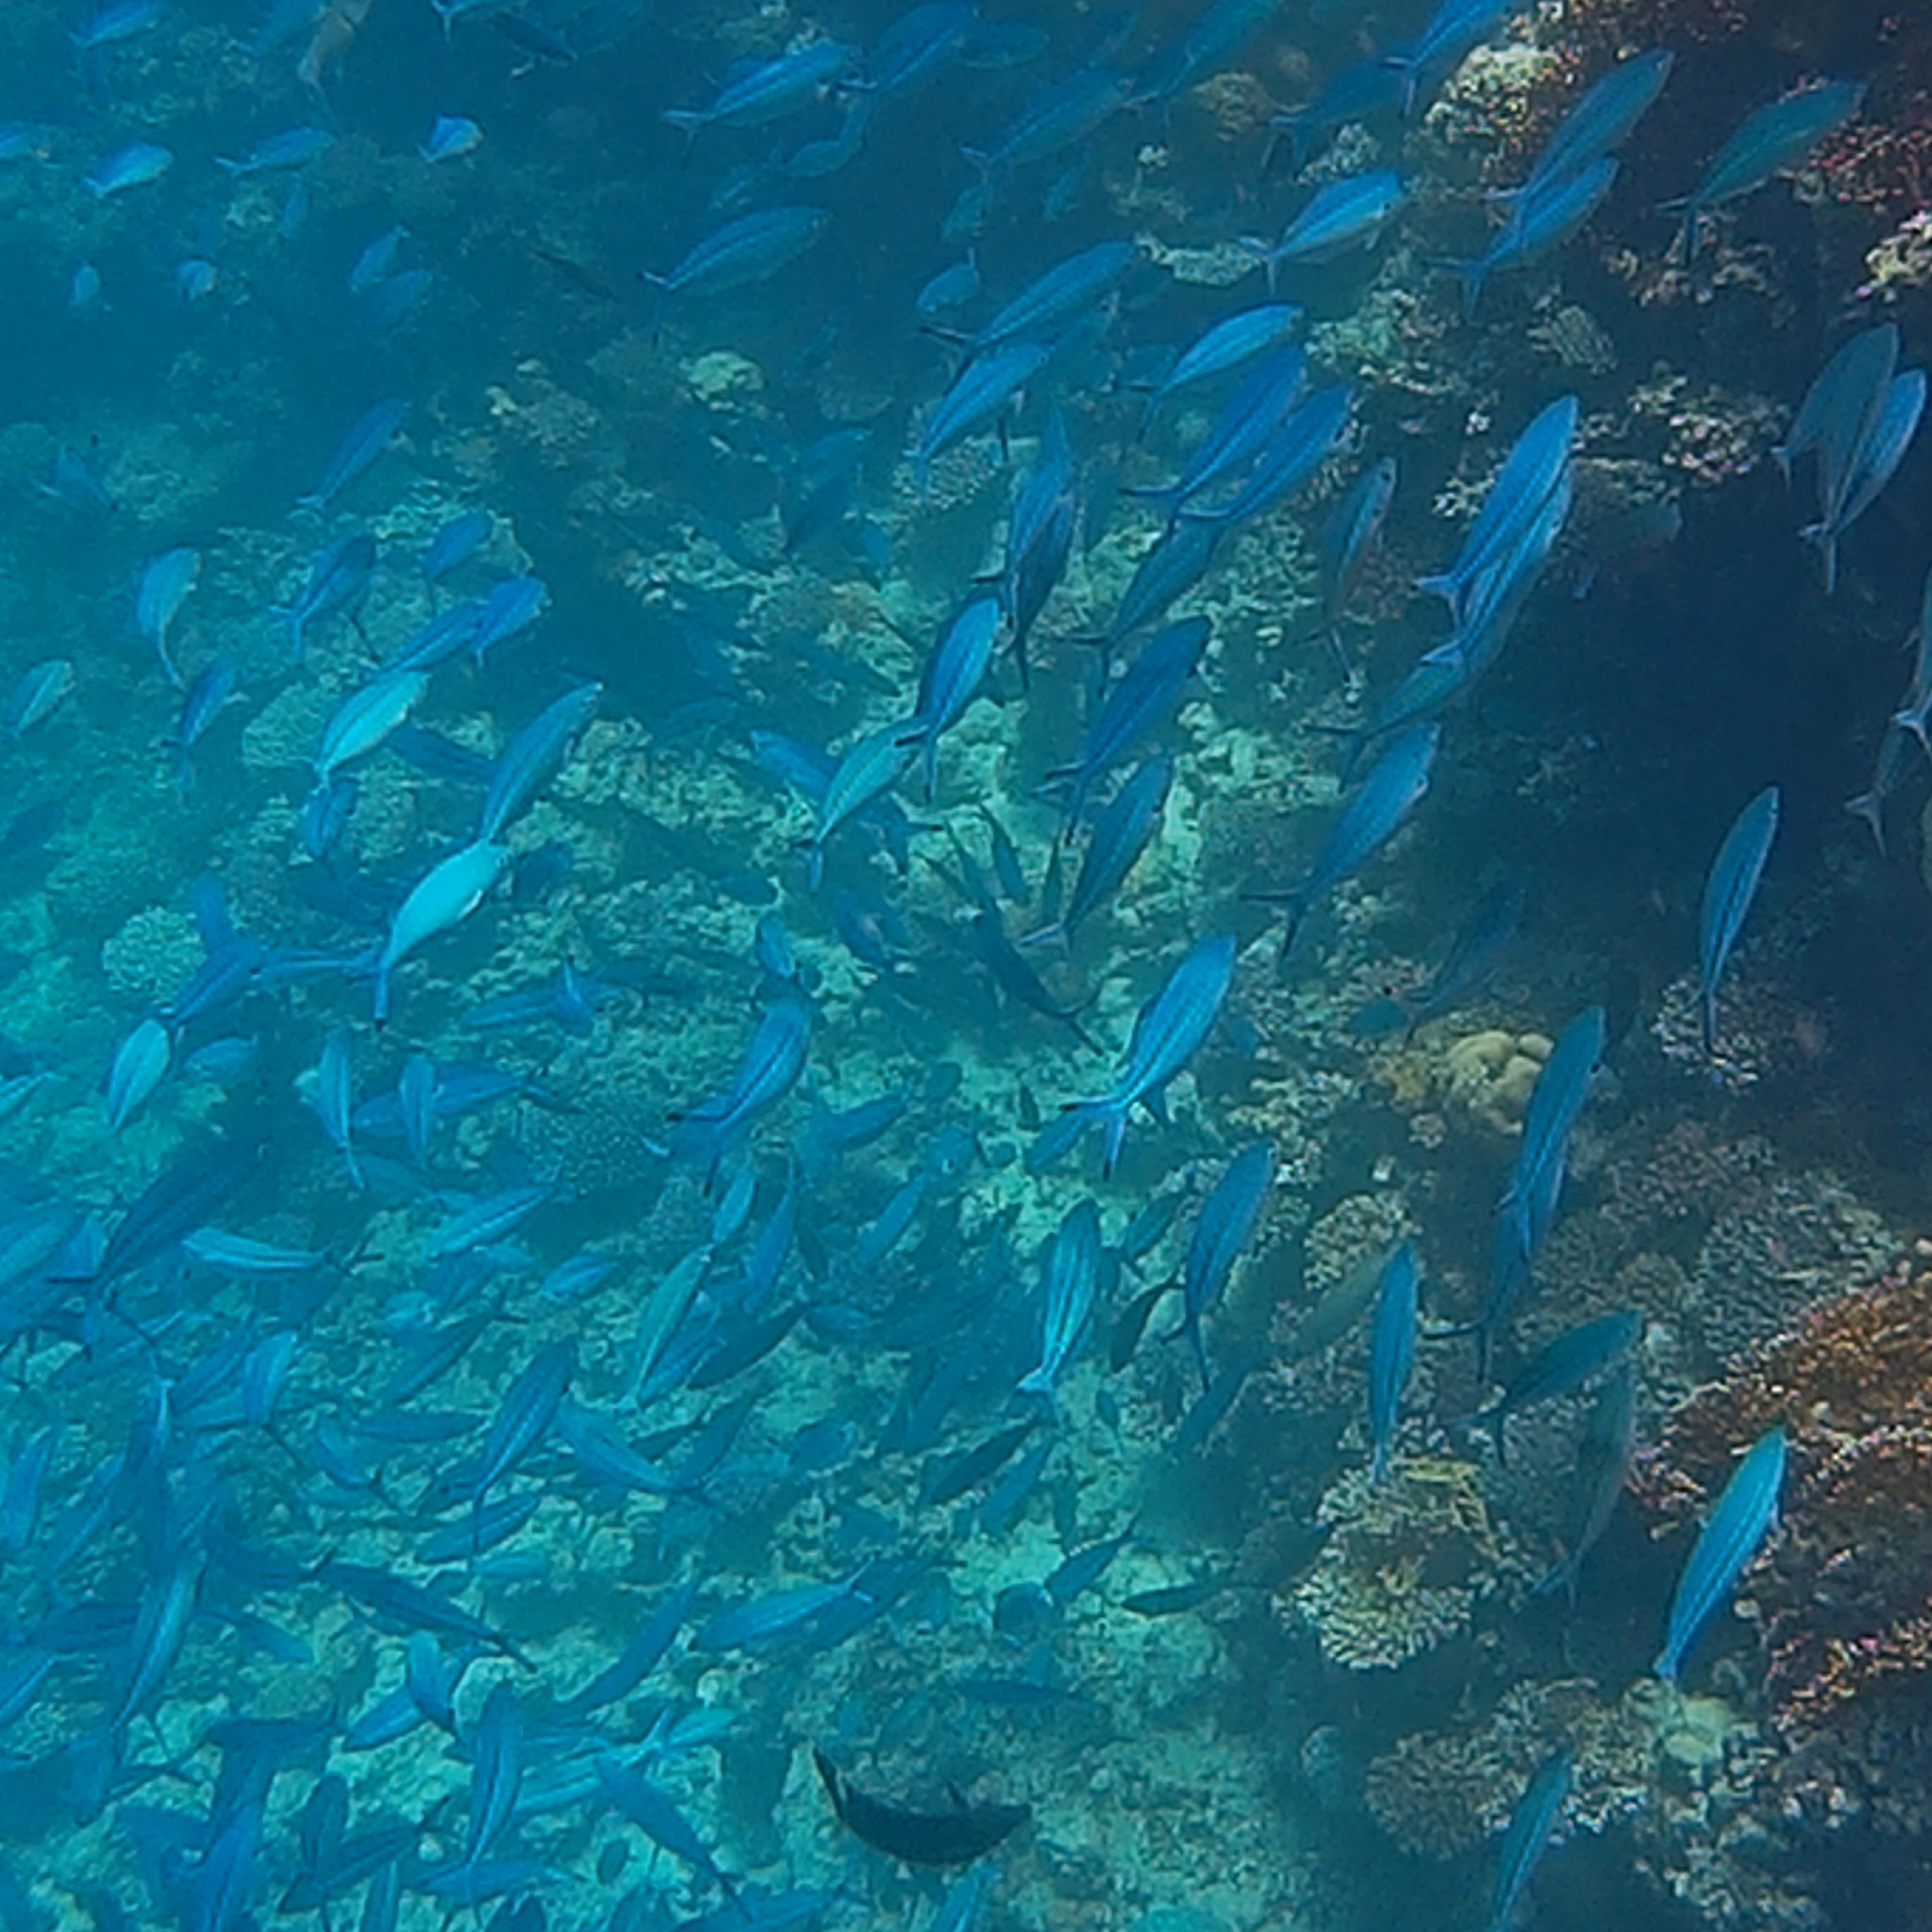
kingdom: Animalia
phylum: Chordata
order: Perciformes
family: Caesionidae
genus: Caesio
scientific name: Caesio striata
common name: Striated fusilier
